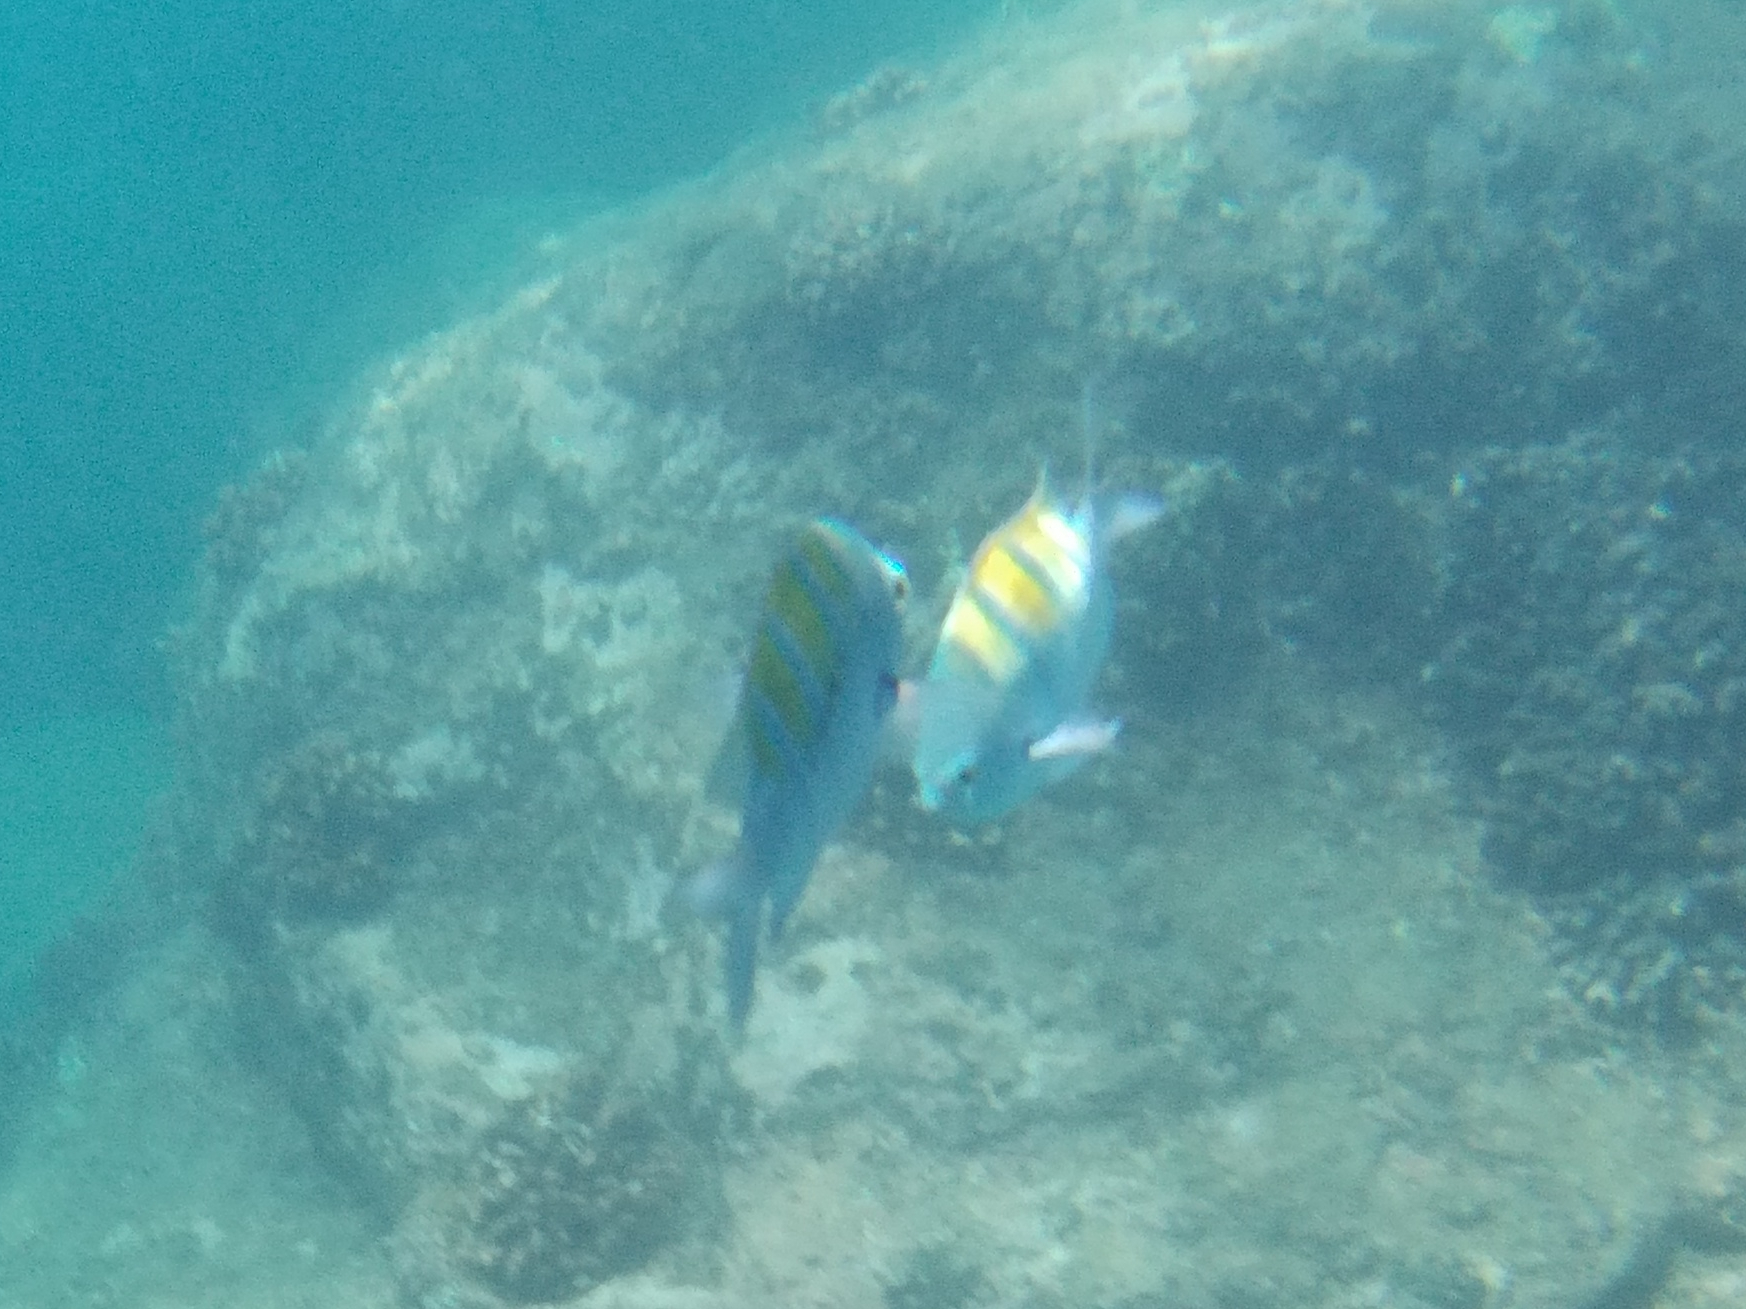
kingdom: Animalia
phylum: Chordata
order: Perciformes
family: Pomacentridae
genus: Abudefduf
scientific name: Abudefduf troschelii
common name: Panamic sergeant major
